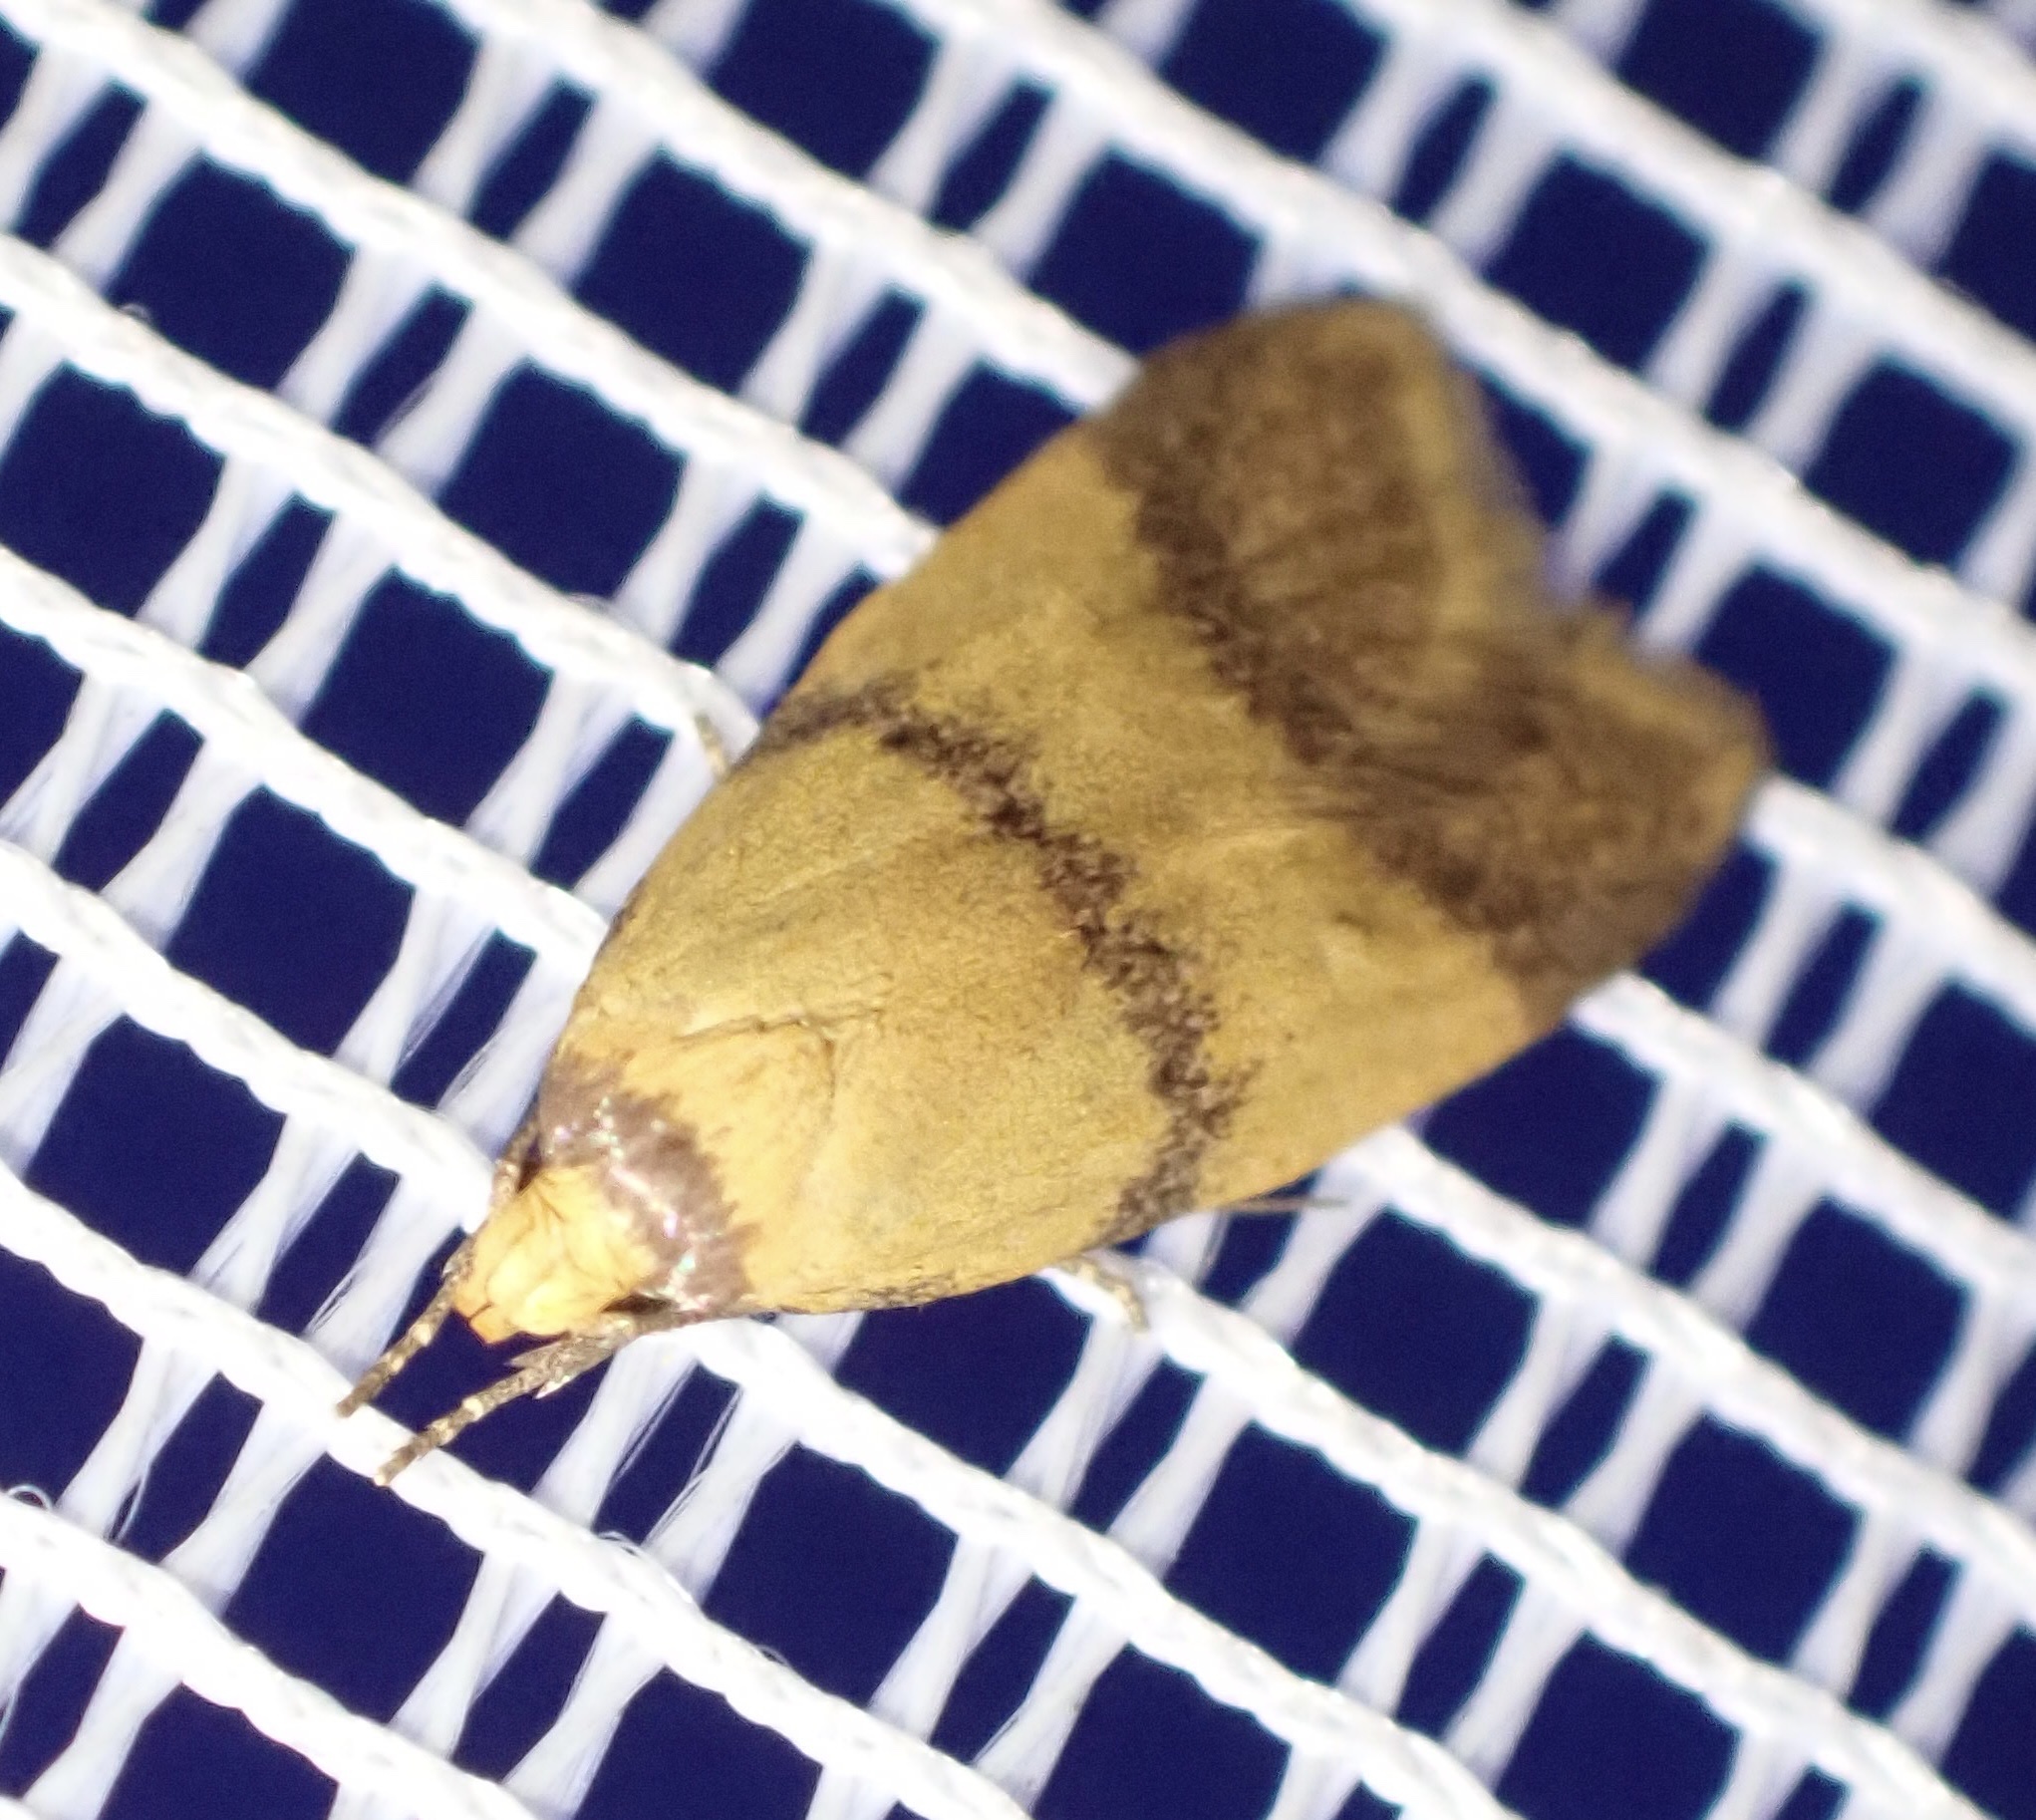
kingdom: Animalia
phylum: Arthropoda
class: Insecta
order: Lepidoptera
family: Oecophoridae
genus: Heteroteucha
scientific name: Heteroteucha translatella
